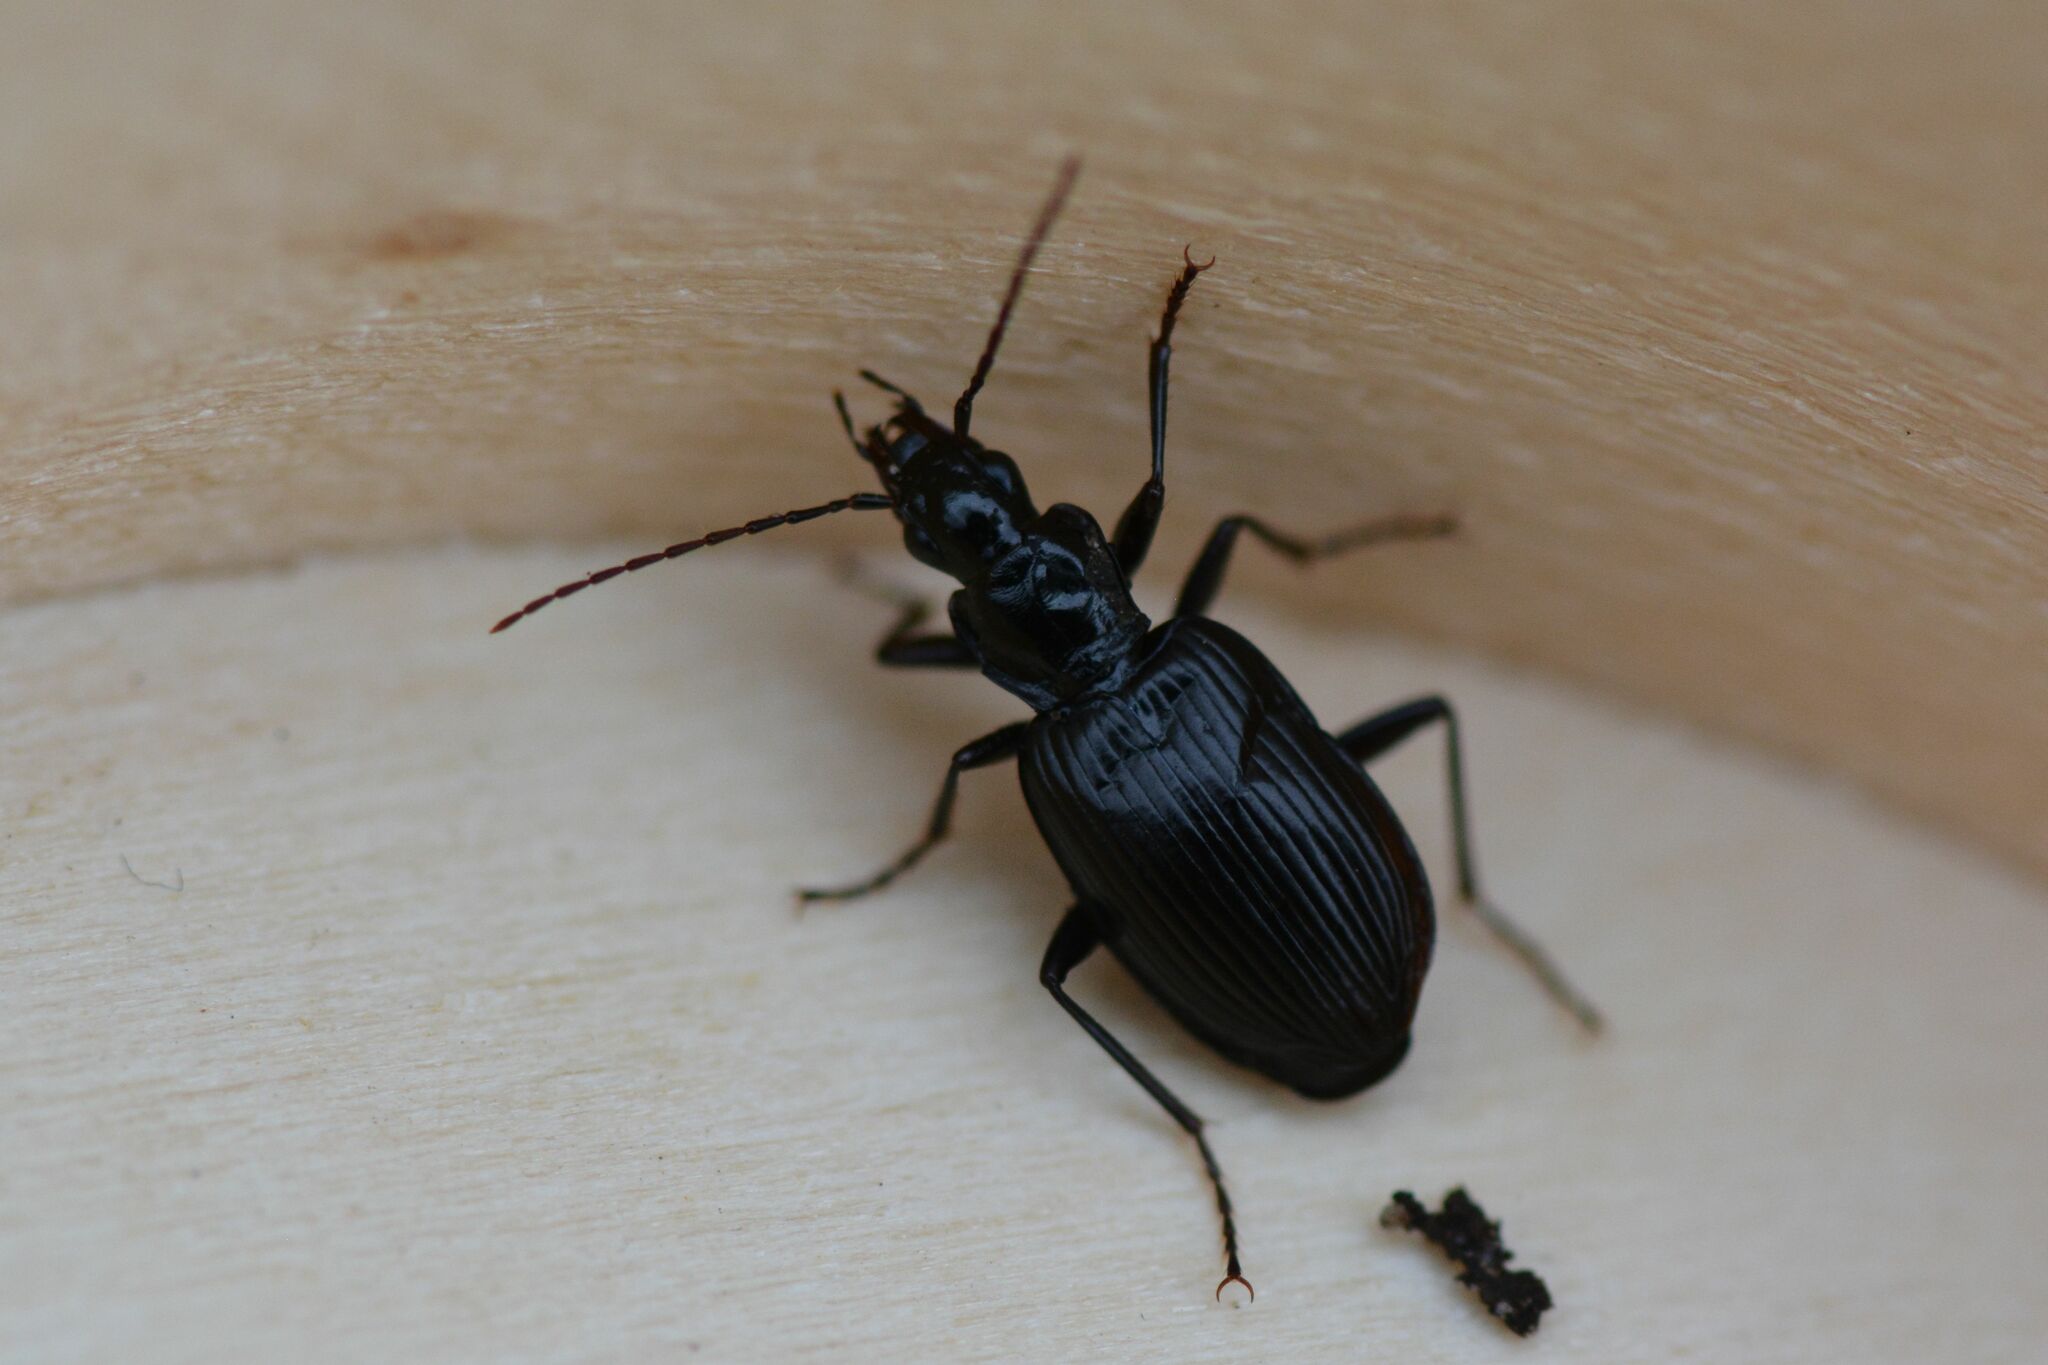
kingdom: Animalia
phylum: Arthropoda
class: Insecta
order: Coleoptera
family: Carabidae
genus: Platynus
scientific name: Platynus assimilis
